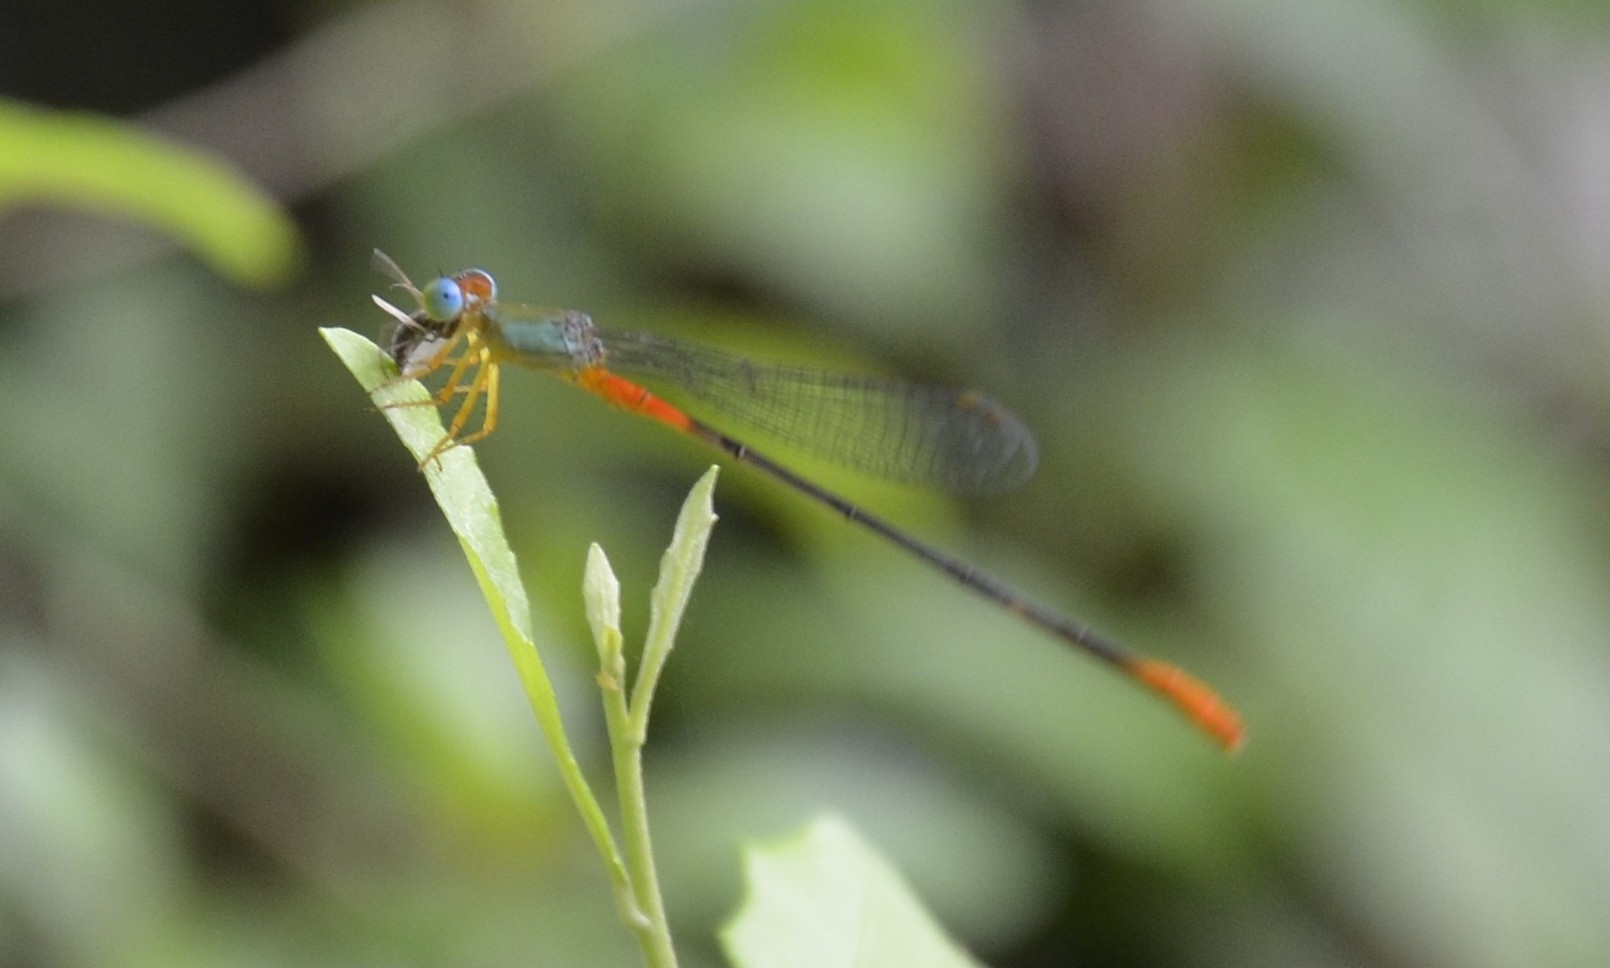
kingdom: Animalia
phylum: Arthropoda
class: Insecta
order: Odonata
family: Coenagrionidae
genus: Ceriagrion
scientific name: Ceriagrion cerinorubellum
